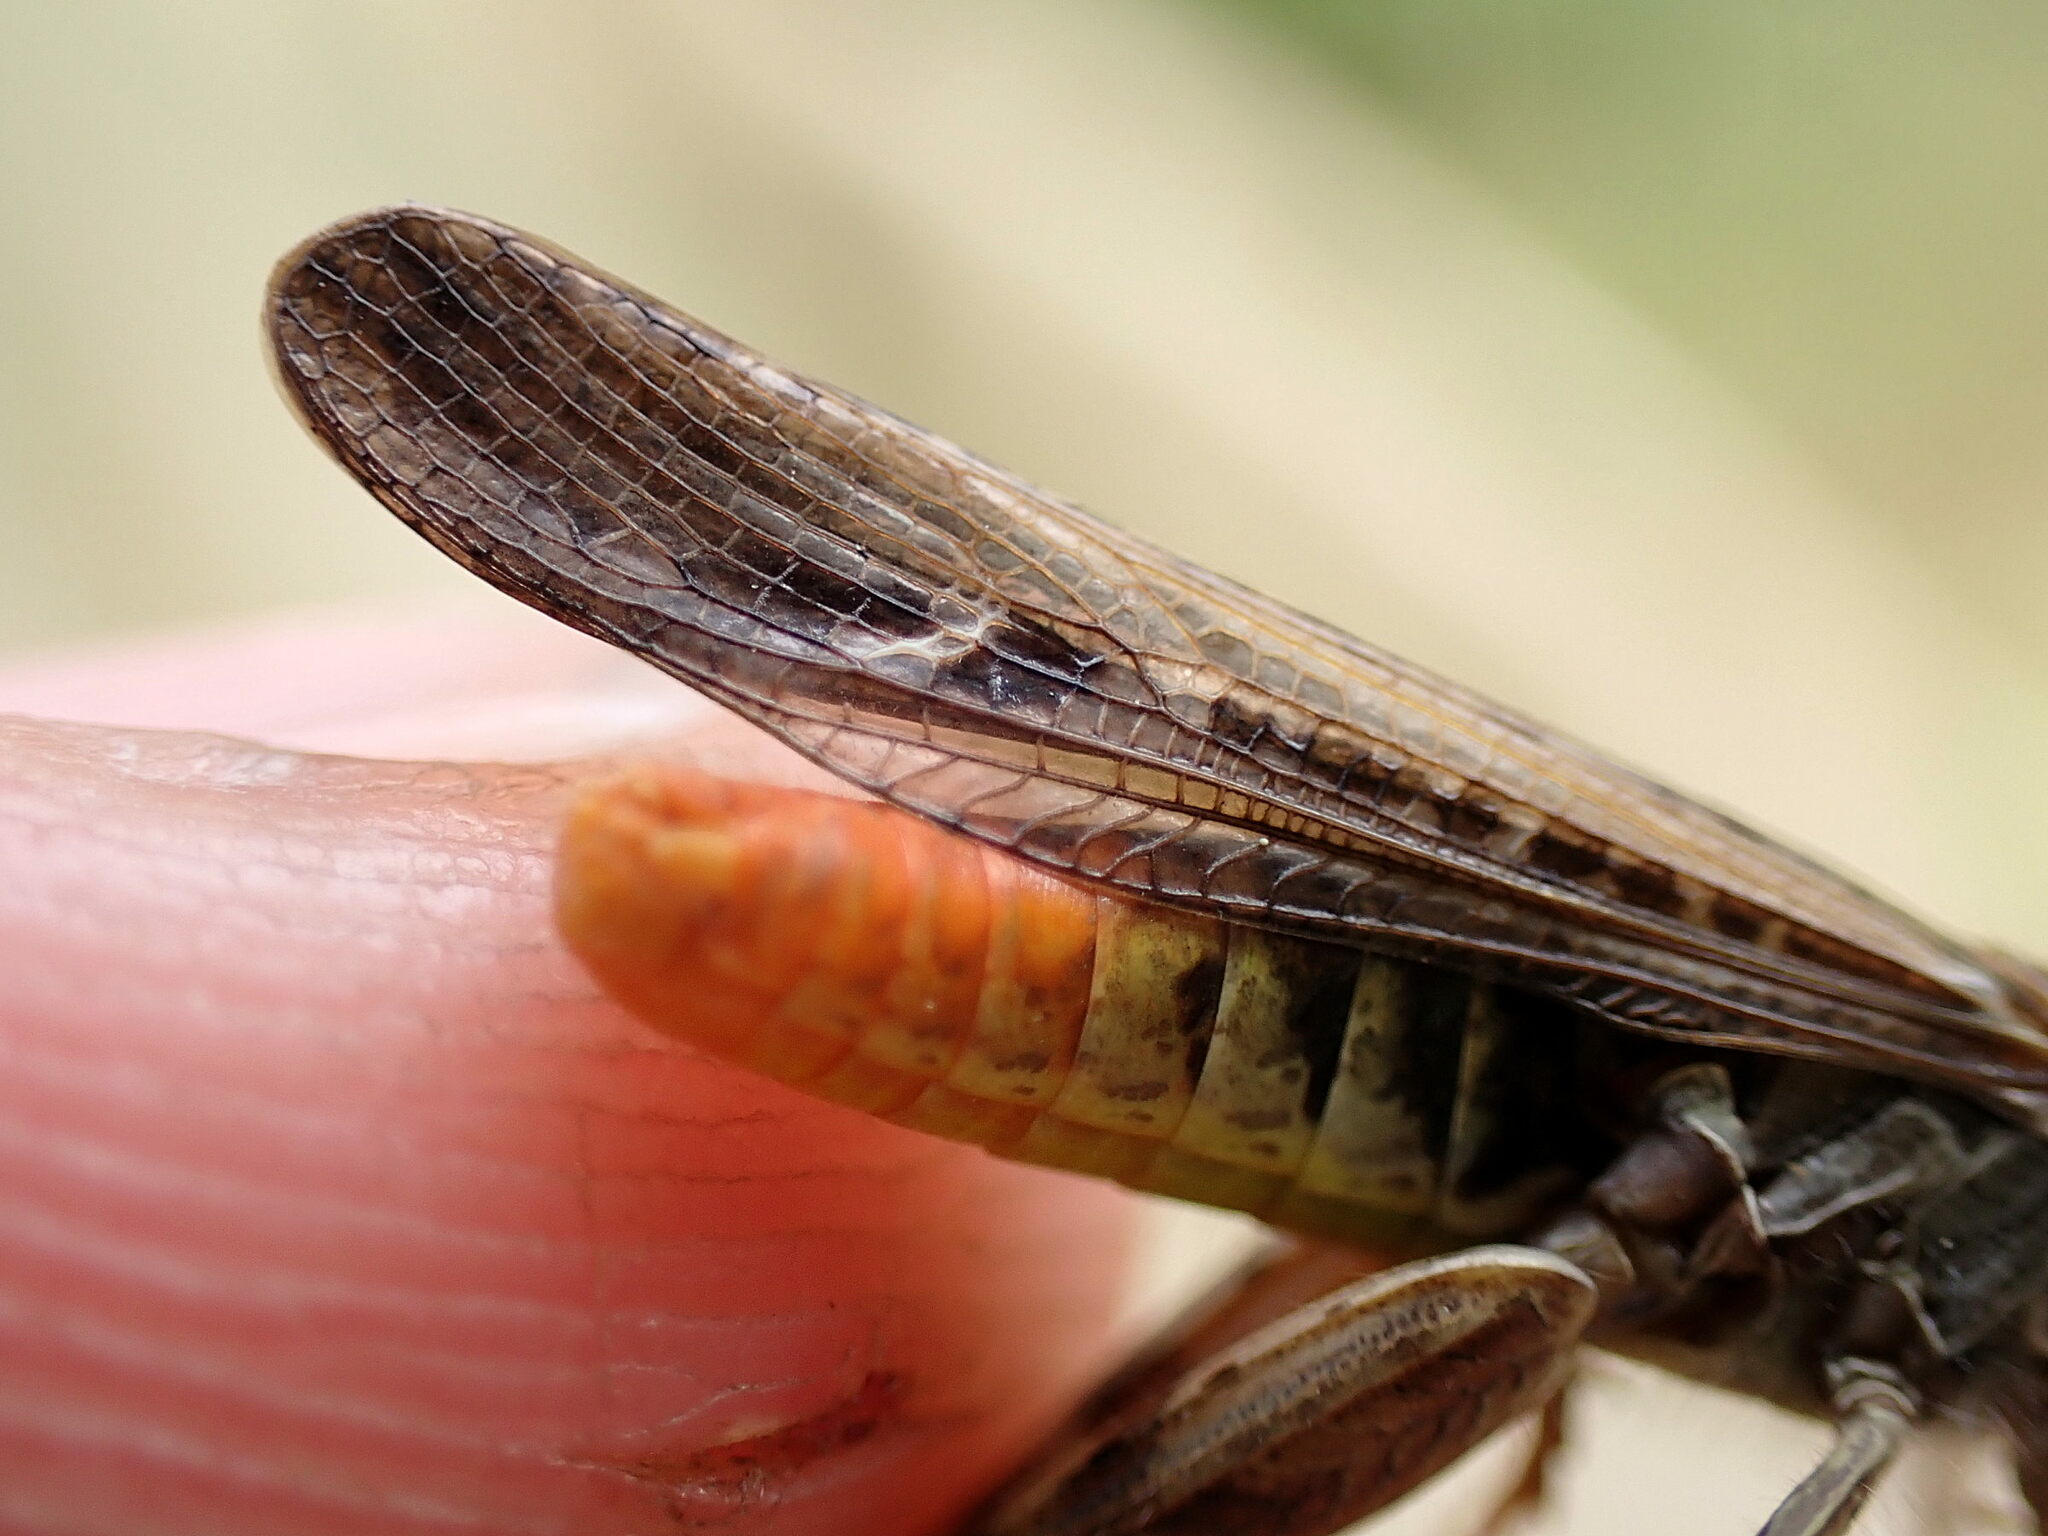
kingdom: Animalia
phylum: Arthropoda
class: Insecta
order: Orthoptera
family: Acrididae
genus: Chorthippus
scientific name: Chorthippus brunneus
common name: Field grasshopper
